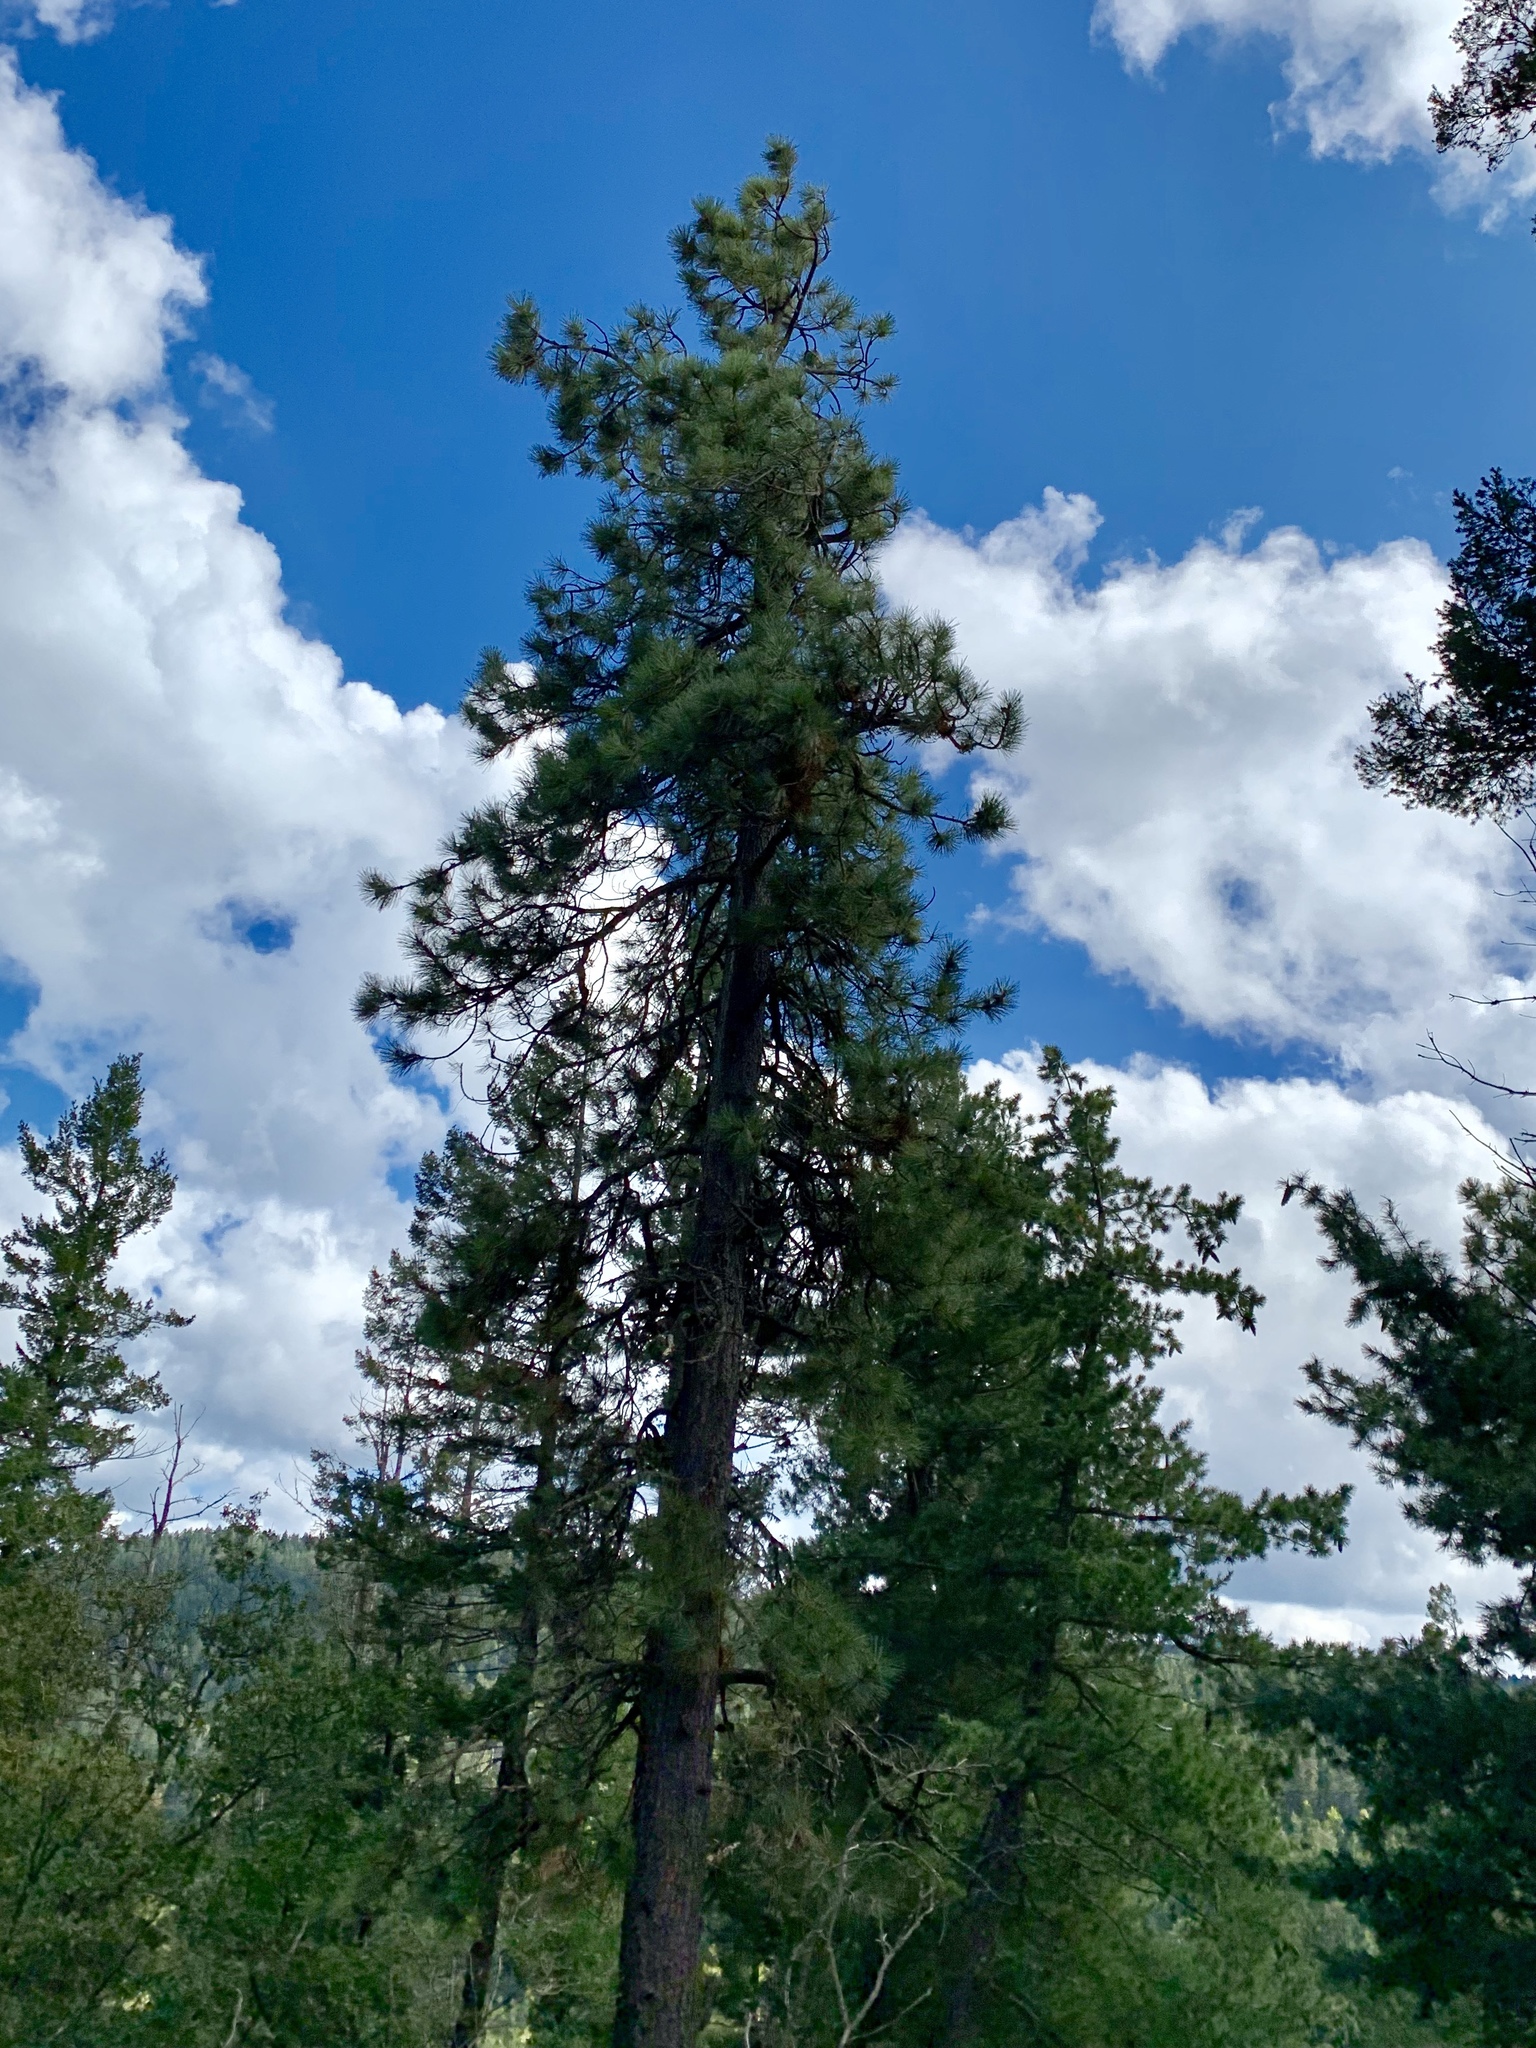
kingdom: Plantae
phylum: Tracheophyta
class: Pinopsida
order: Pinales
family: Pinaceae
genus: Pinus
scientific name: Pinus ponderosa
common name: Western yellow-pine
